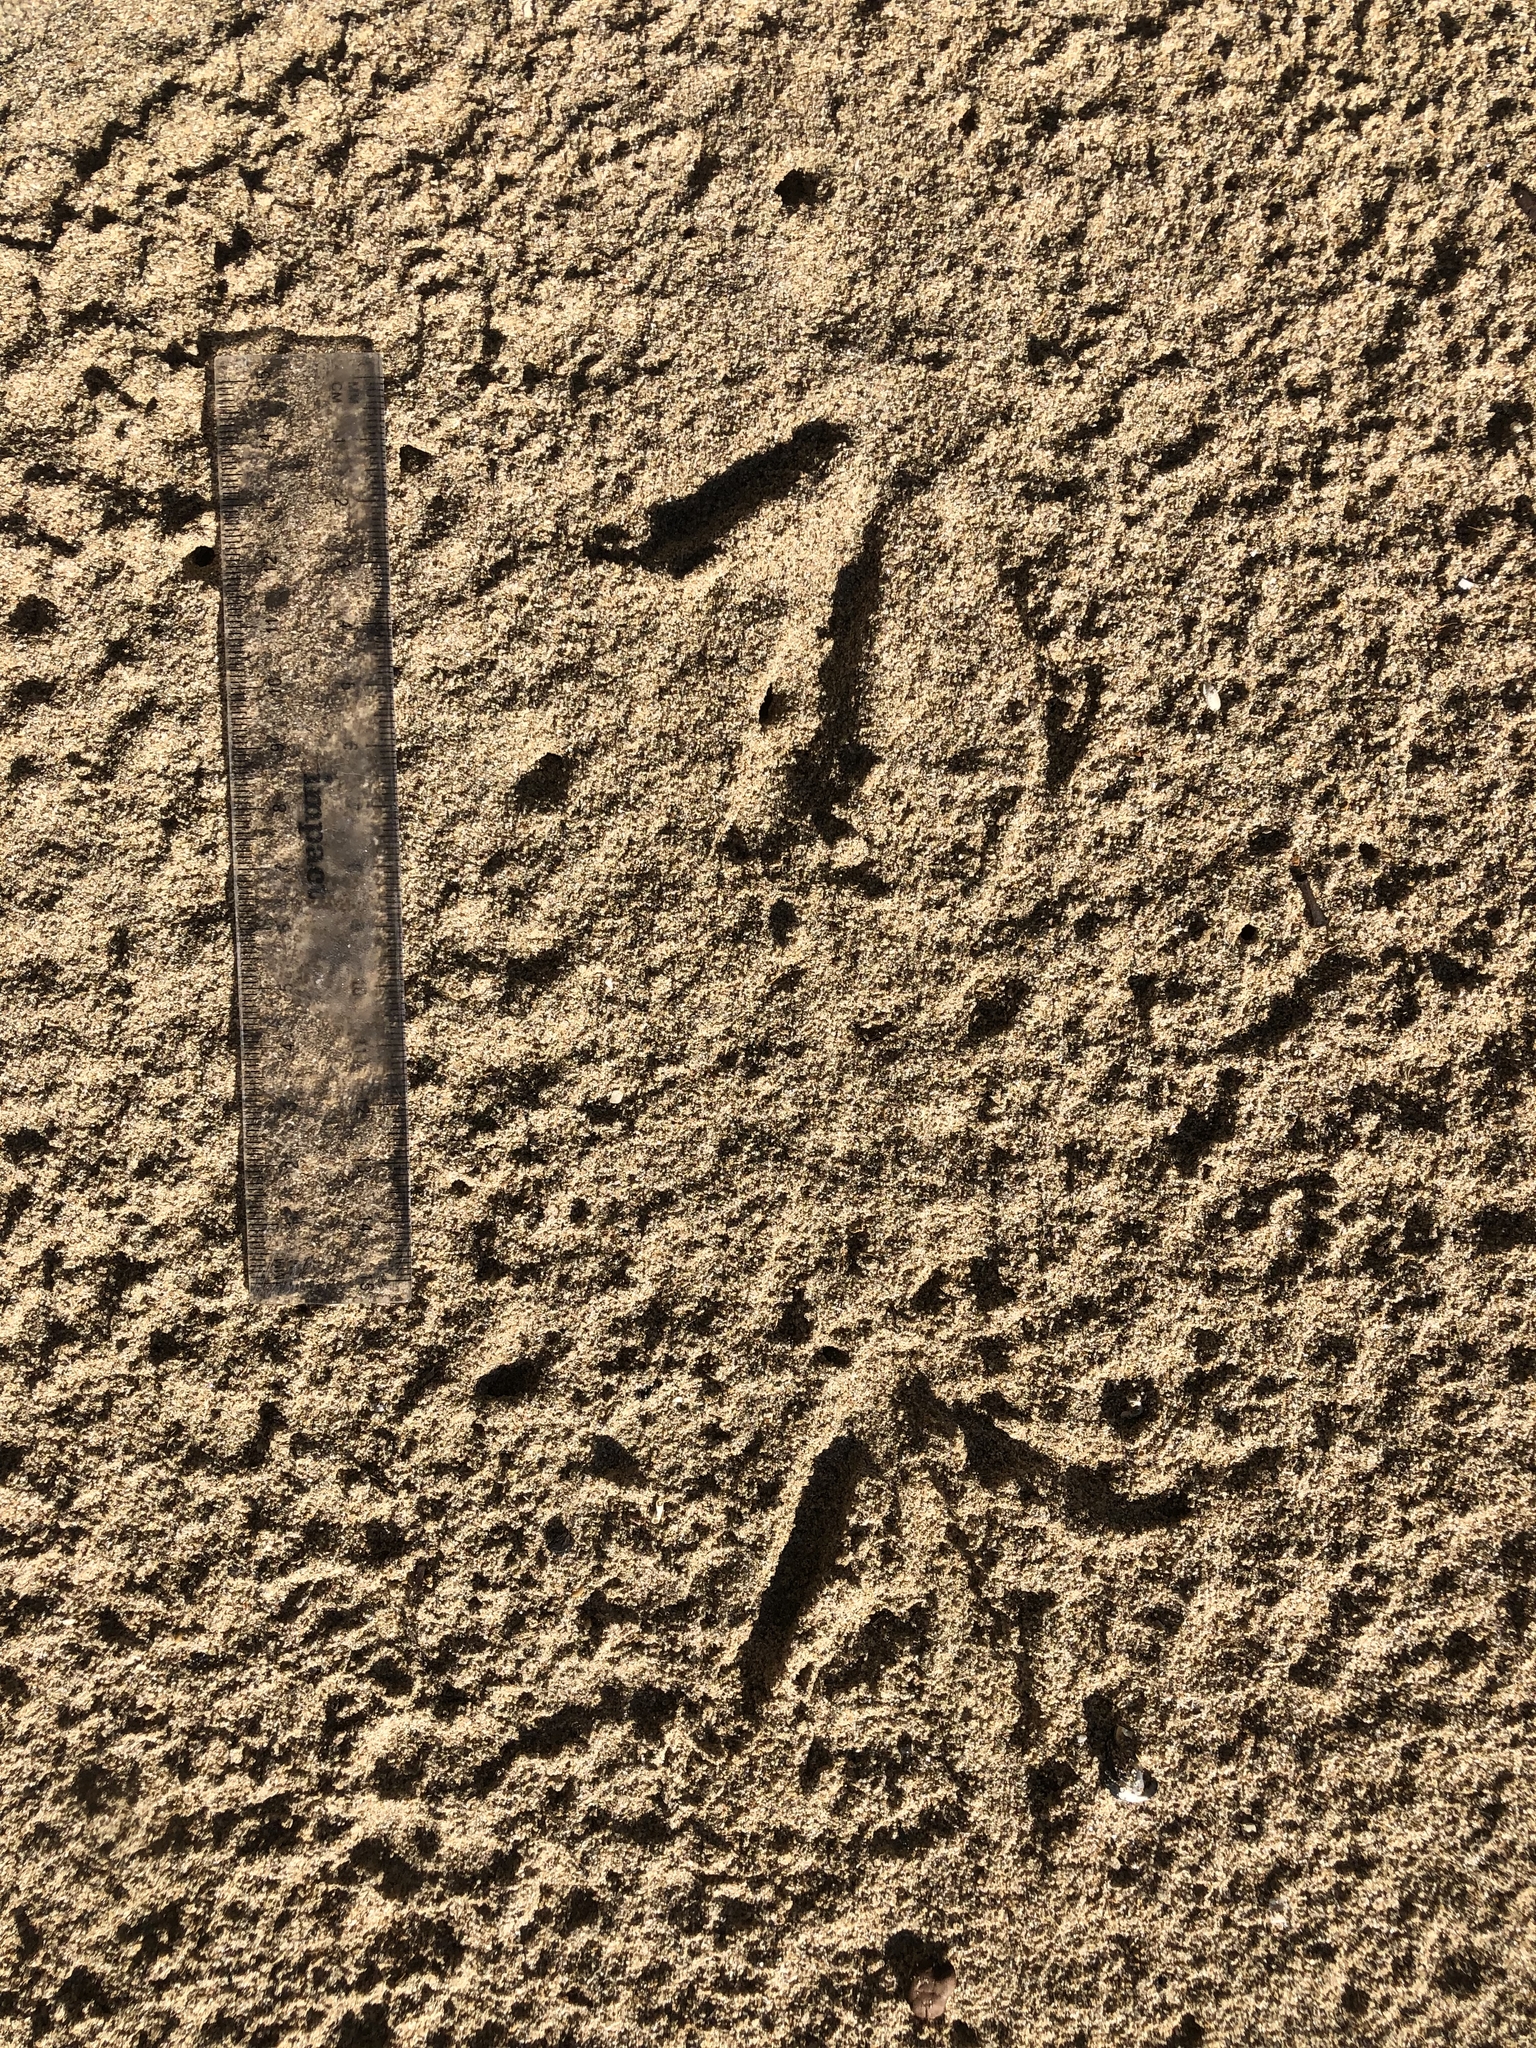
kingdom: Animalia
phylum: Chordata
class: Aves
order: Gruiformes
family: Rallidae
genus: Gallirallus
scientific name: Gallirallus australis
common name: Weka
